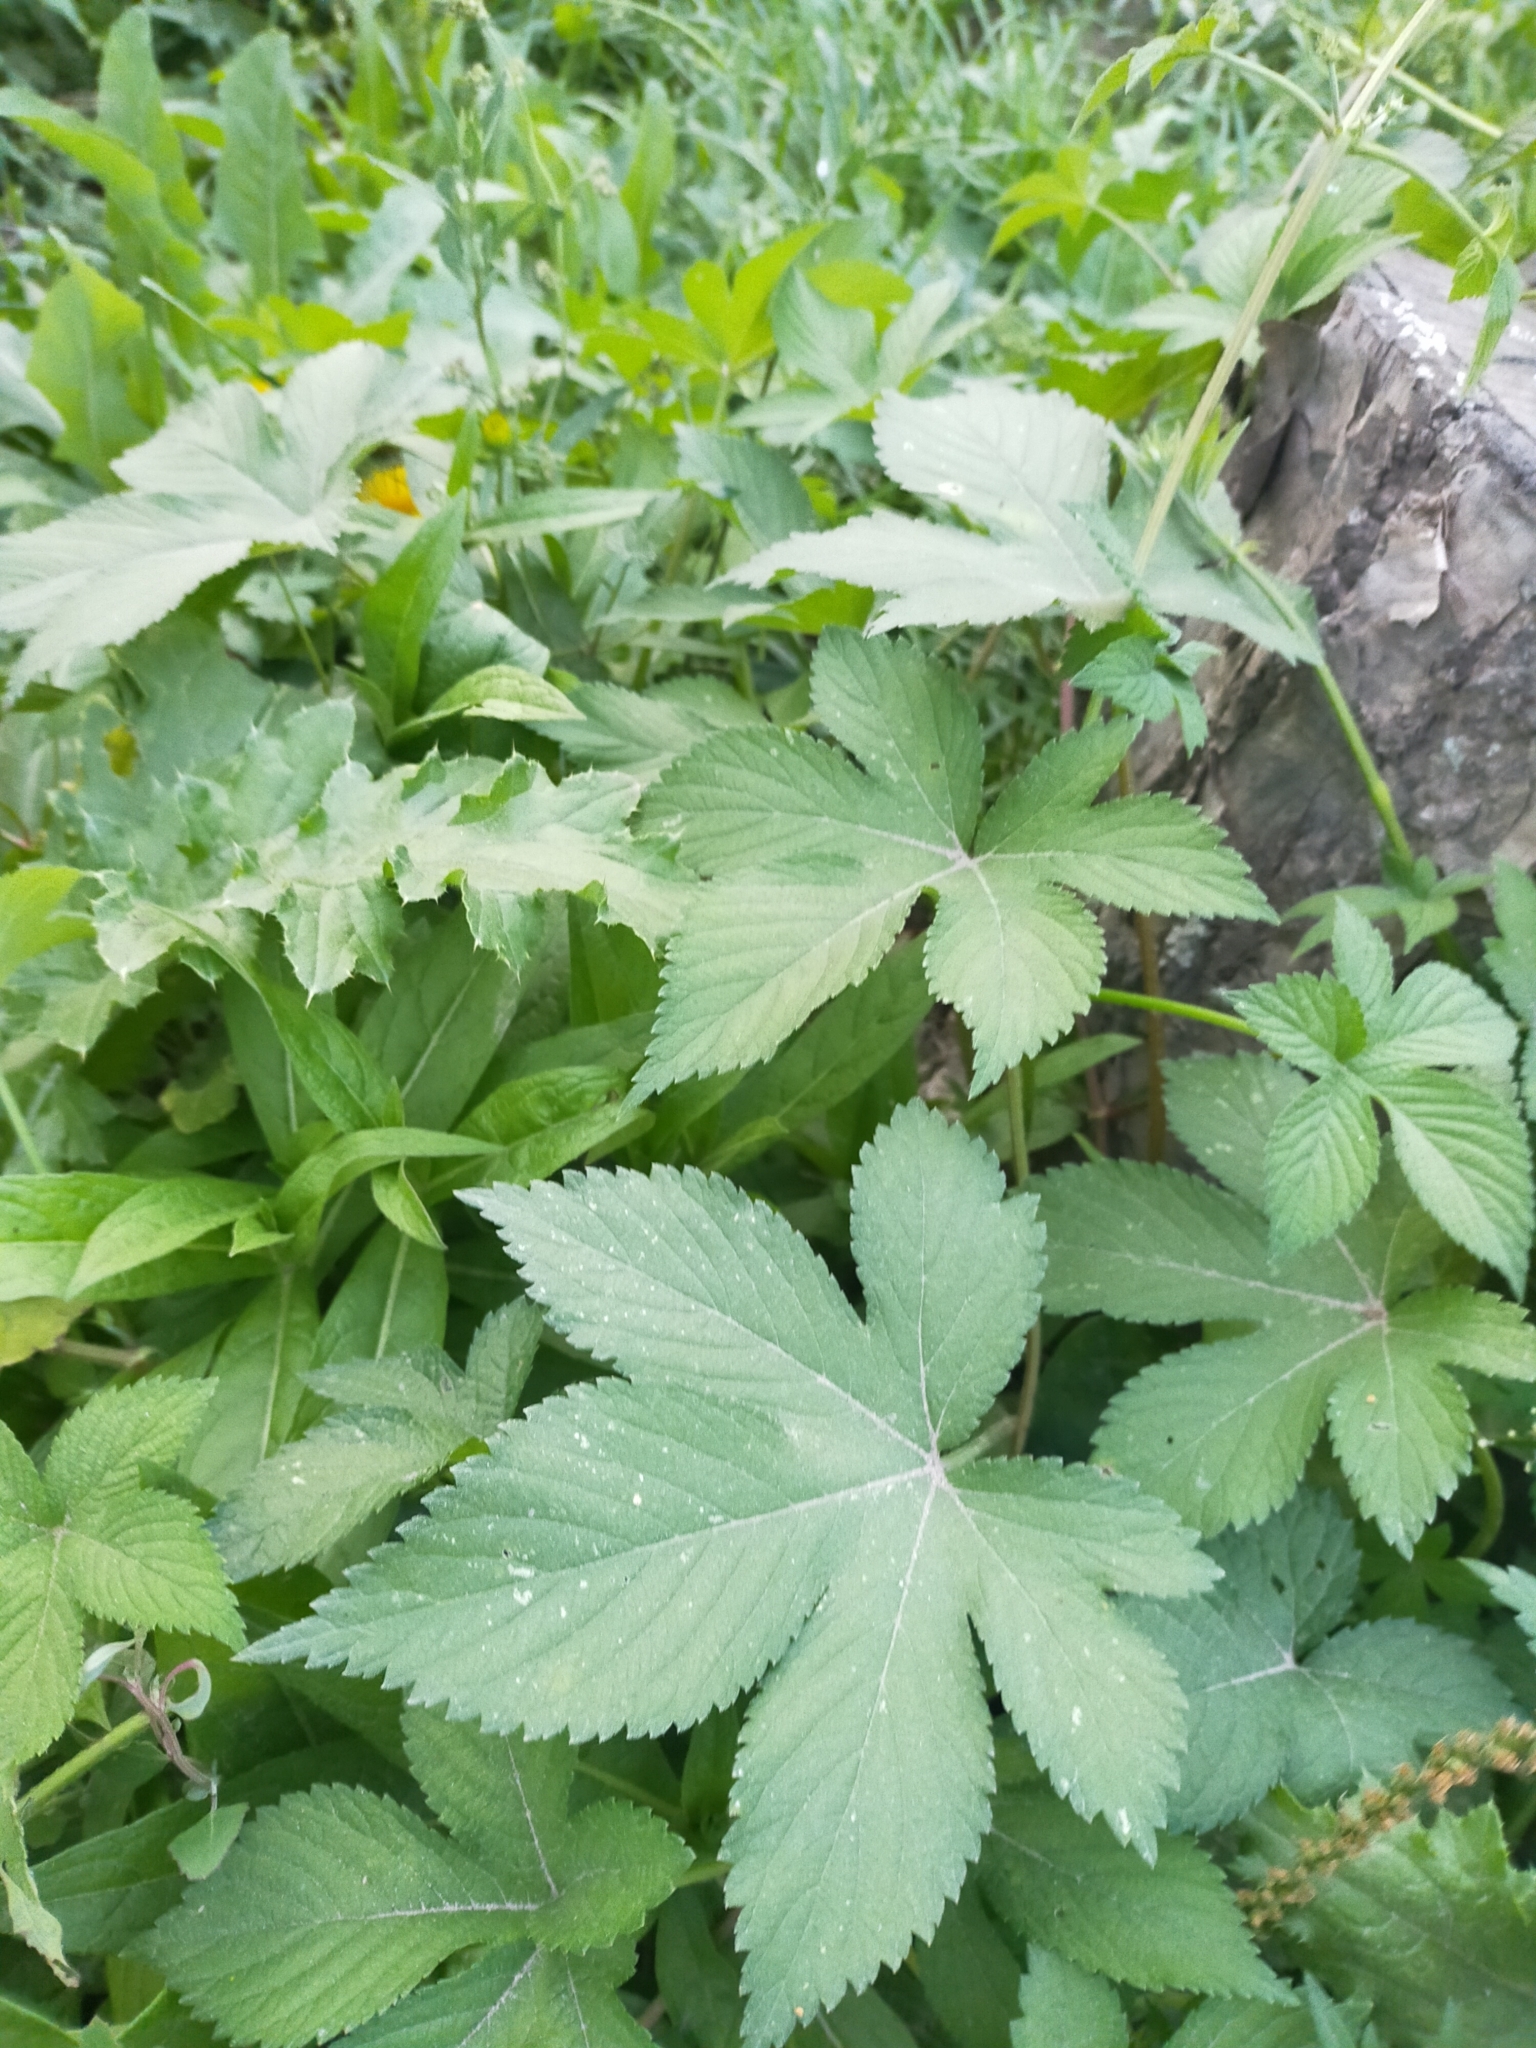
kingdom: Plantae
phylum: Tracheophyta
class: Magnoliopsida
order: Rosales
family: Cannabaceae
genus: Humulus
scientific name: Humulus scandens
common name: Japanese hop
